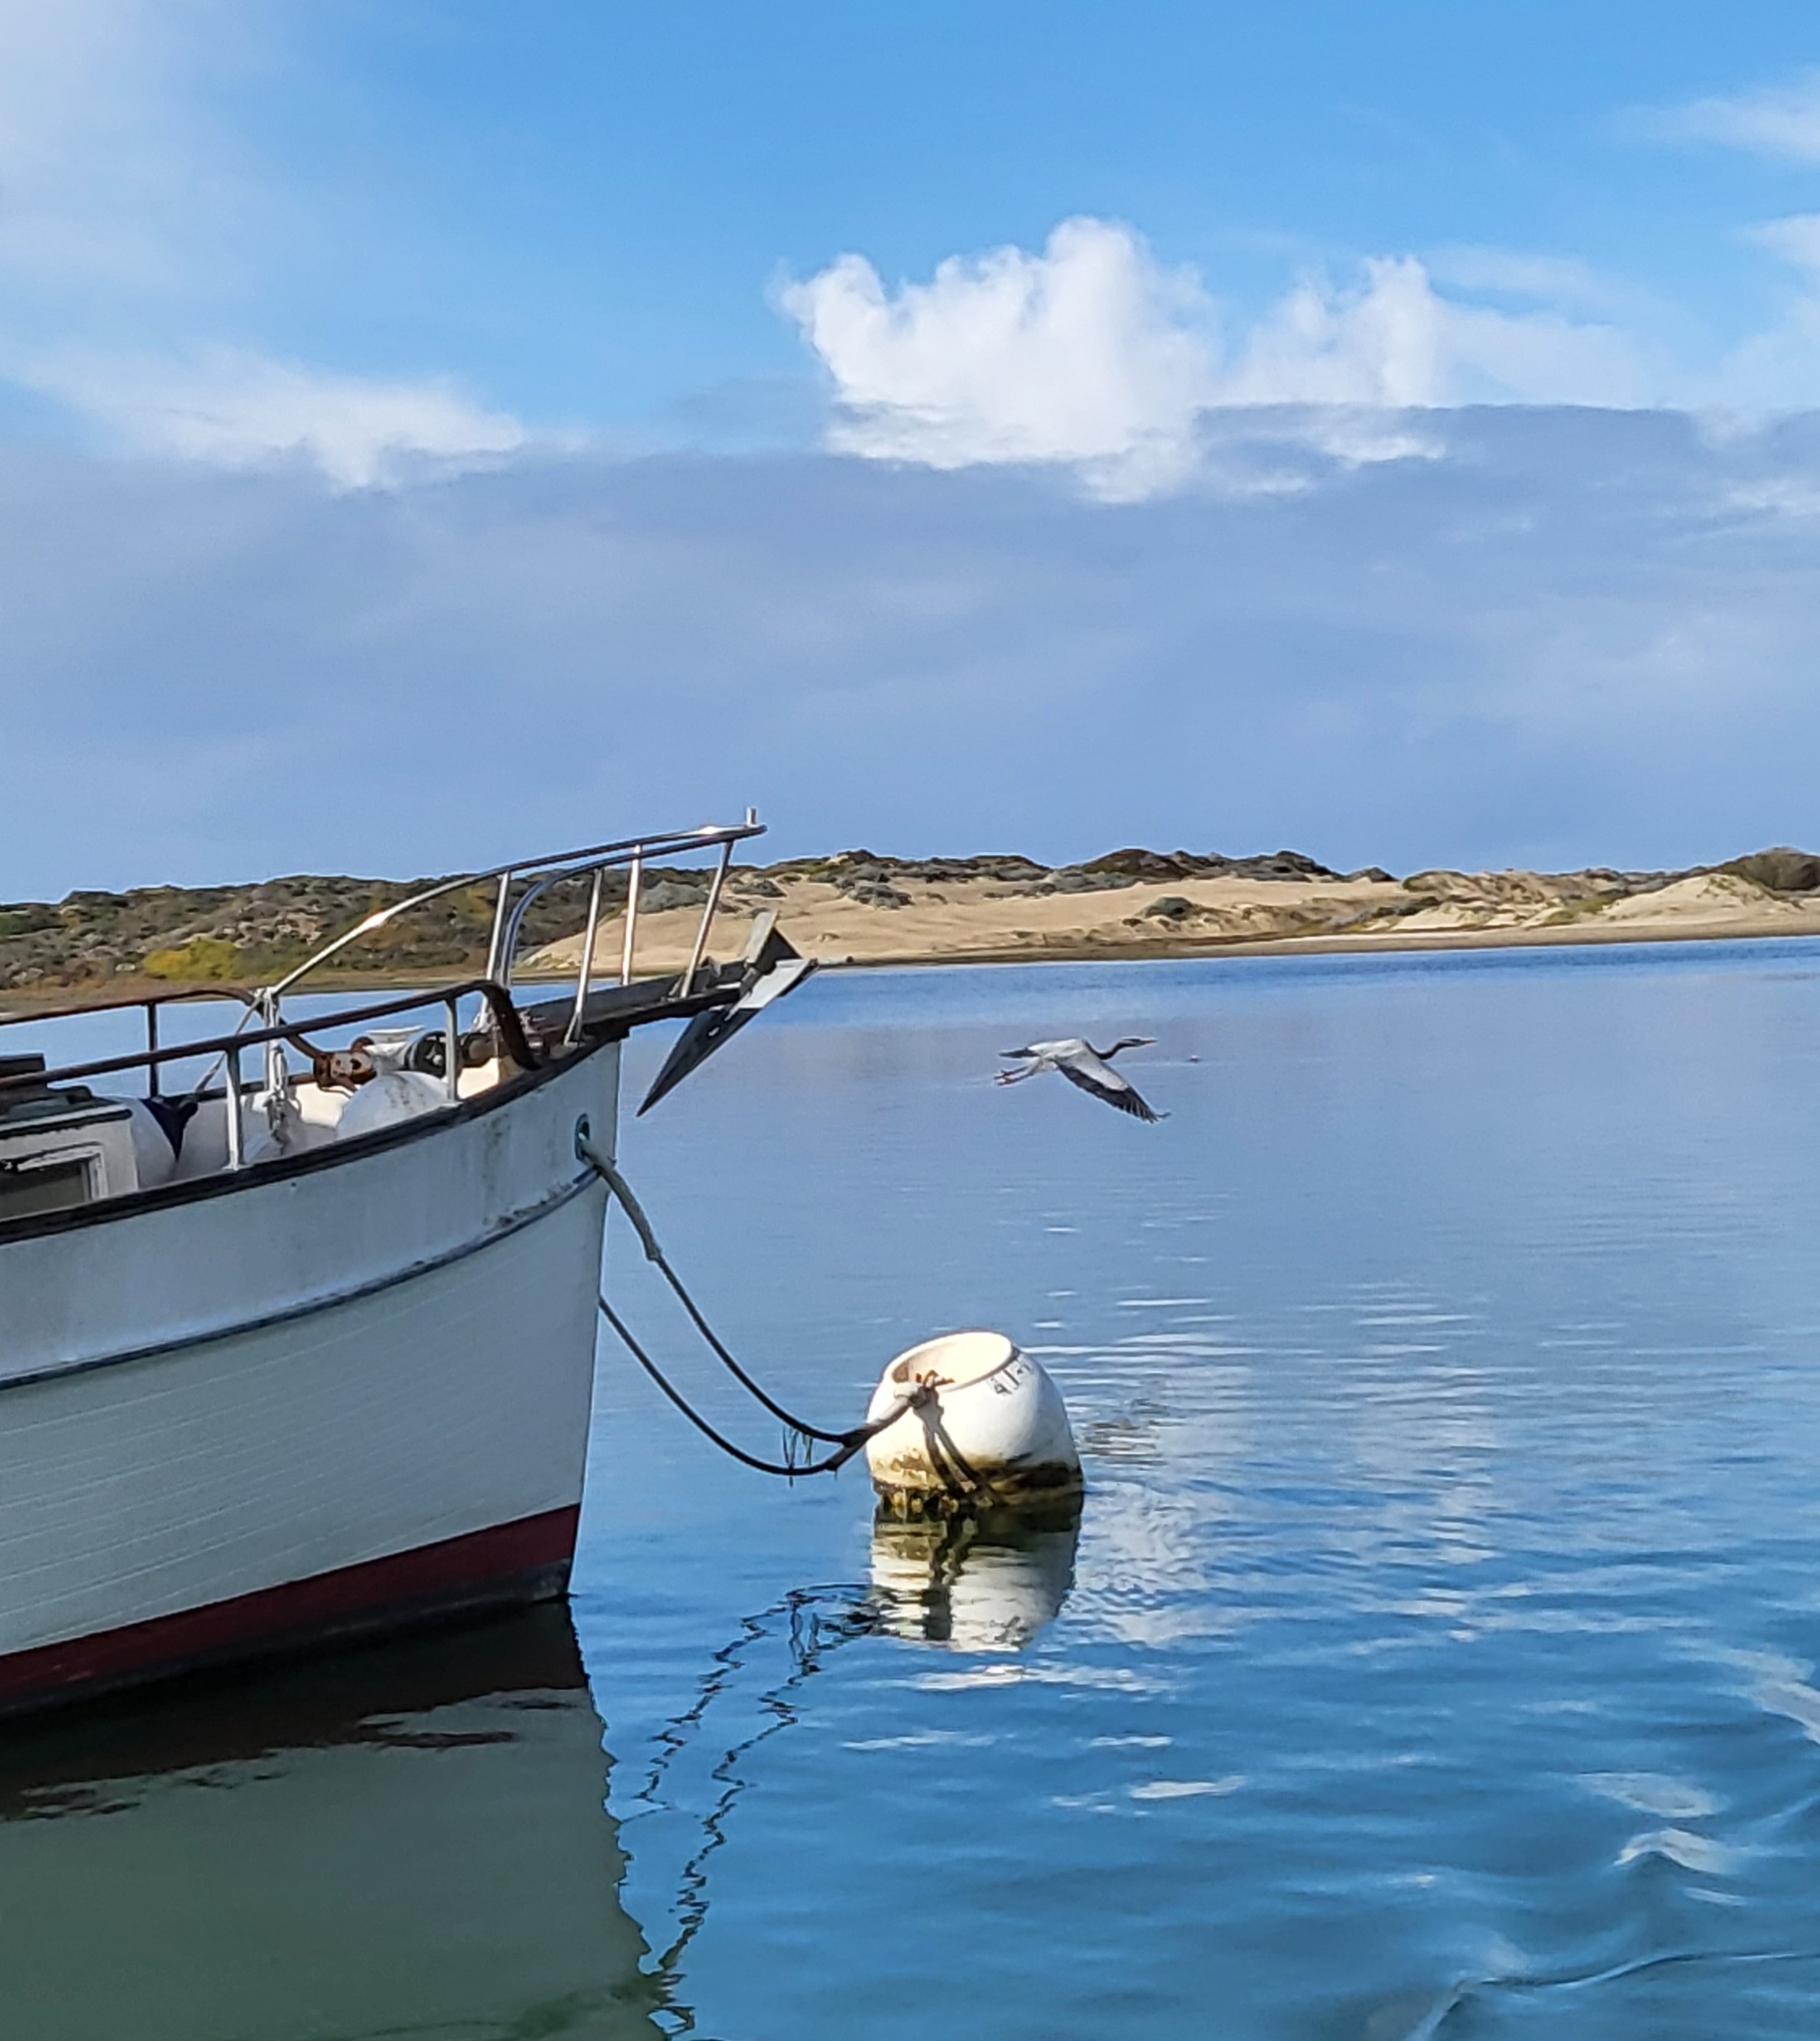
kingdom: Animalia
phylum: Chordata
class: Aves
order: Pelecaniformes
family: Ardeidae
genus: Ardea
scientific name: Ardea herodias
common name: Great blue heron
